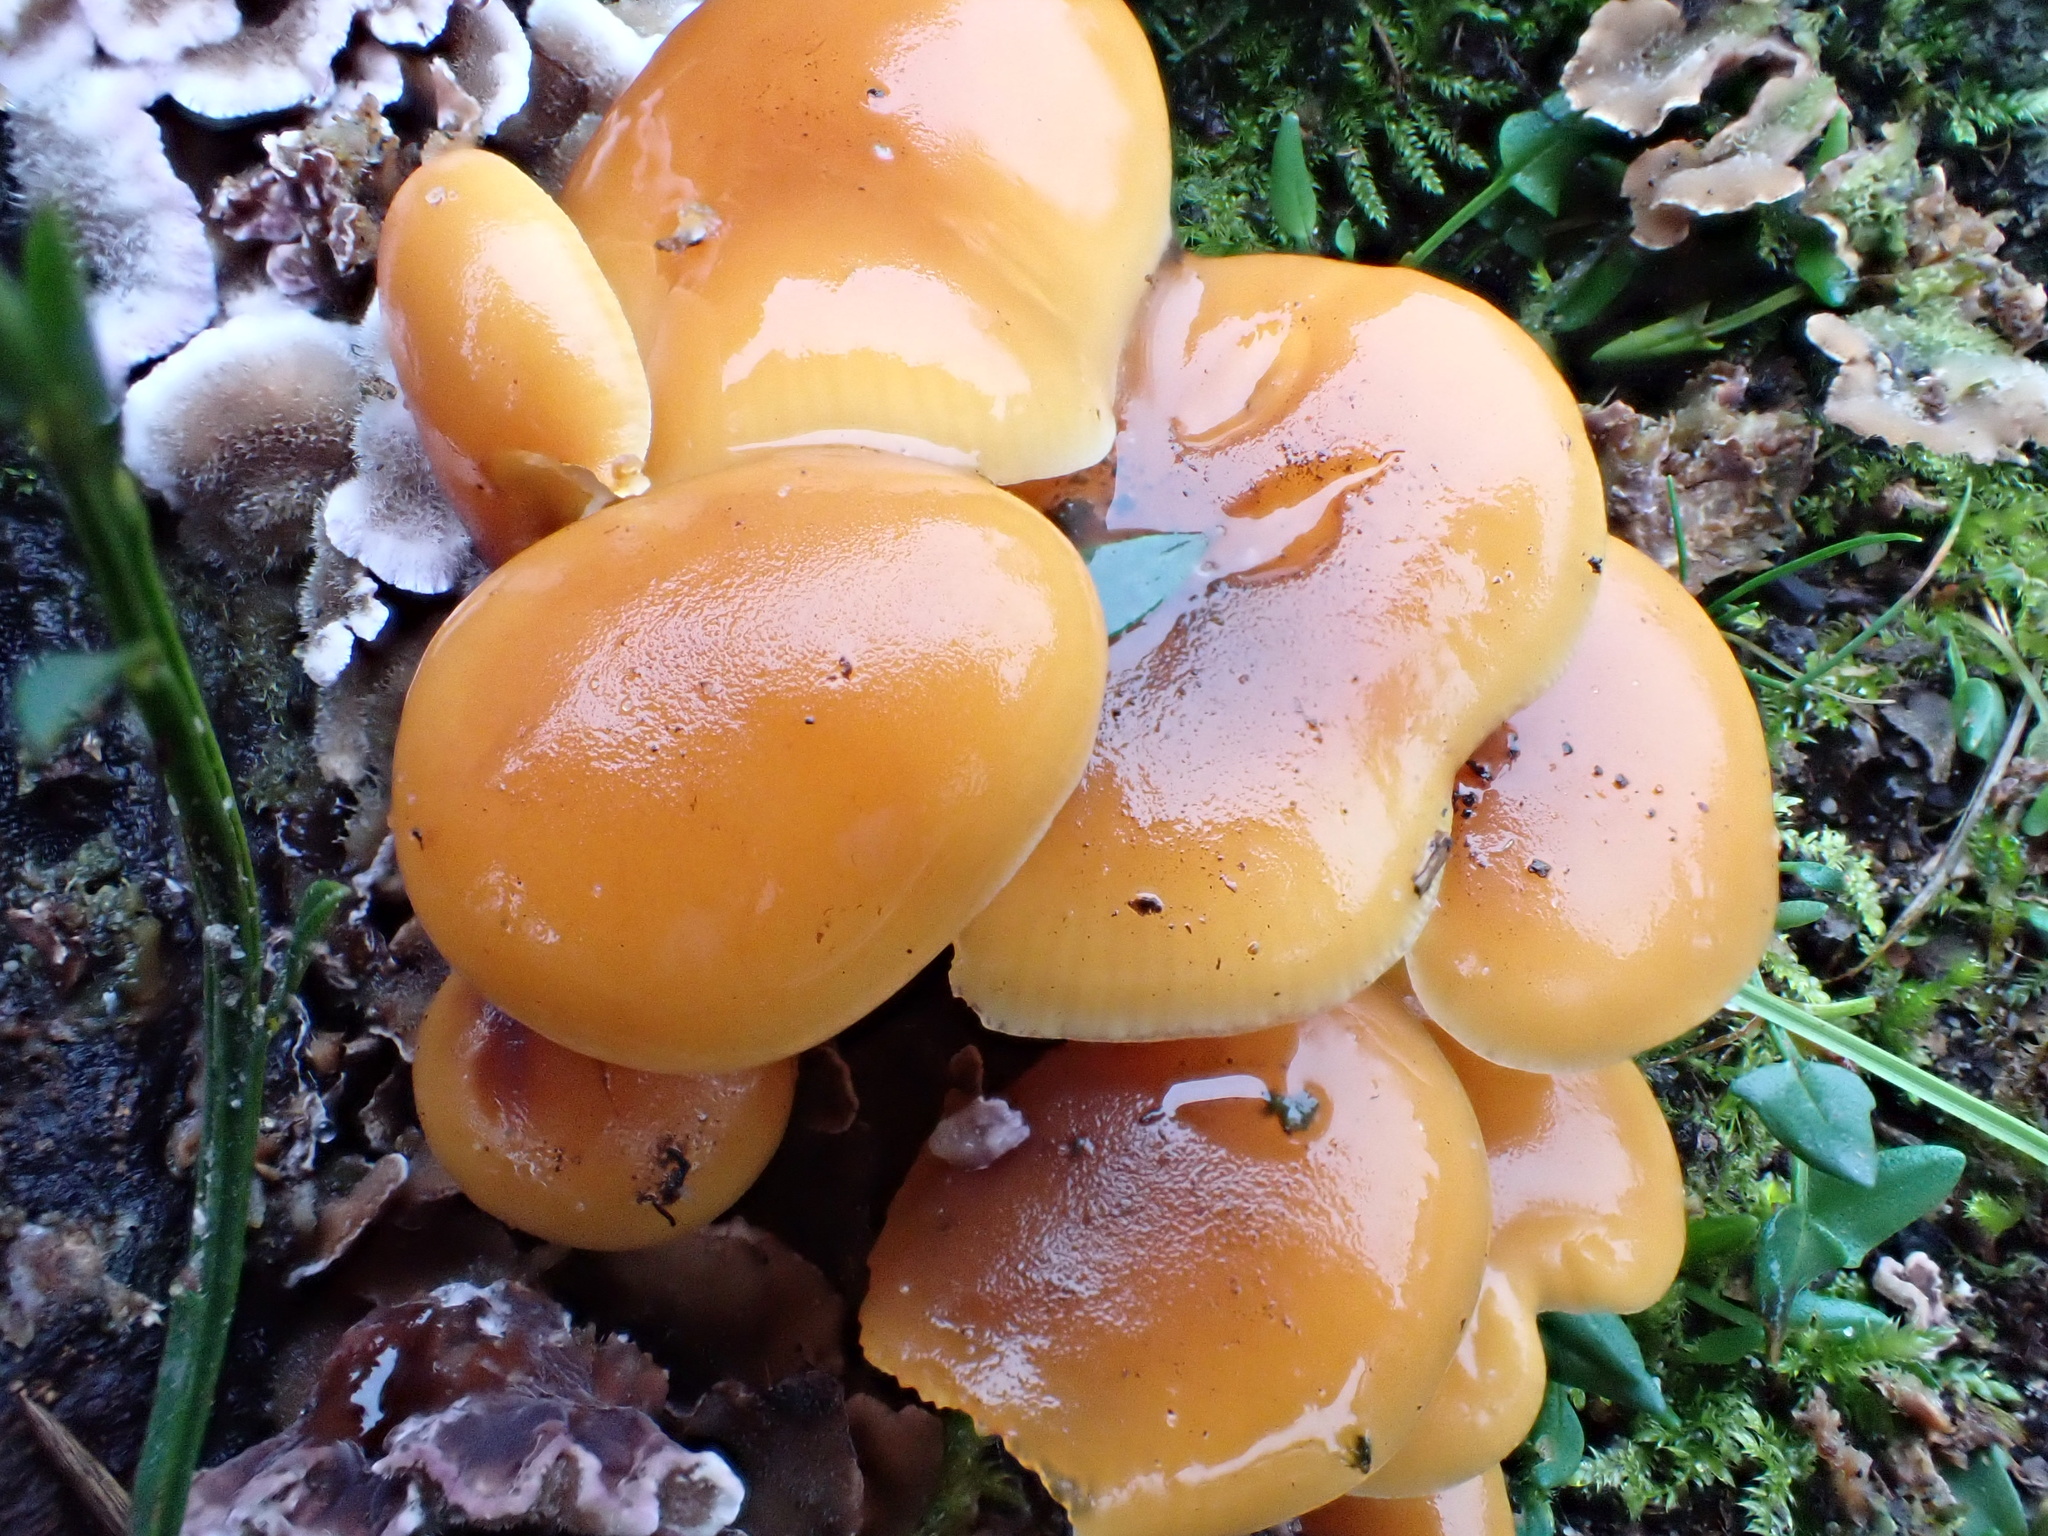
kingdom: Fungi
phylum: Basidiomycota
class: Agaricomycetes
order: Agaricales
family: Physalacriaceae
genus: Flammulina
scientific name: Flammulina
